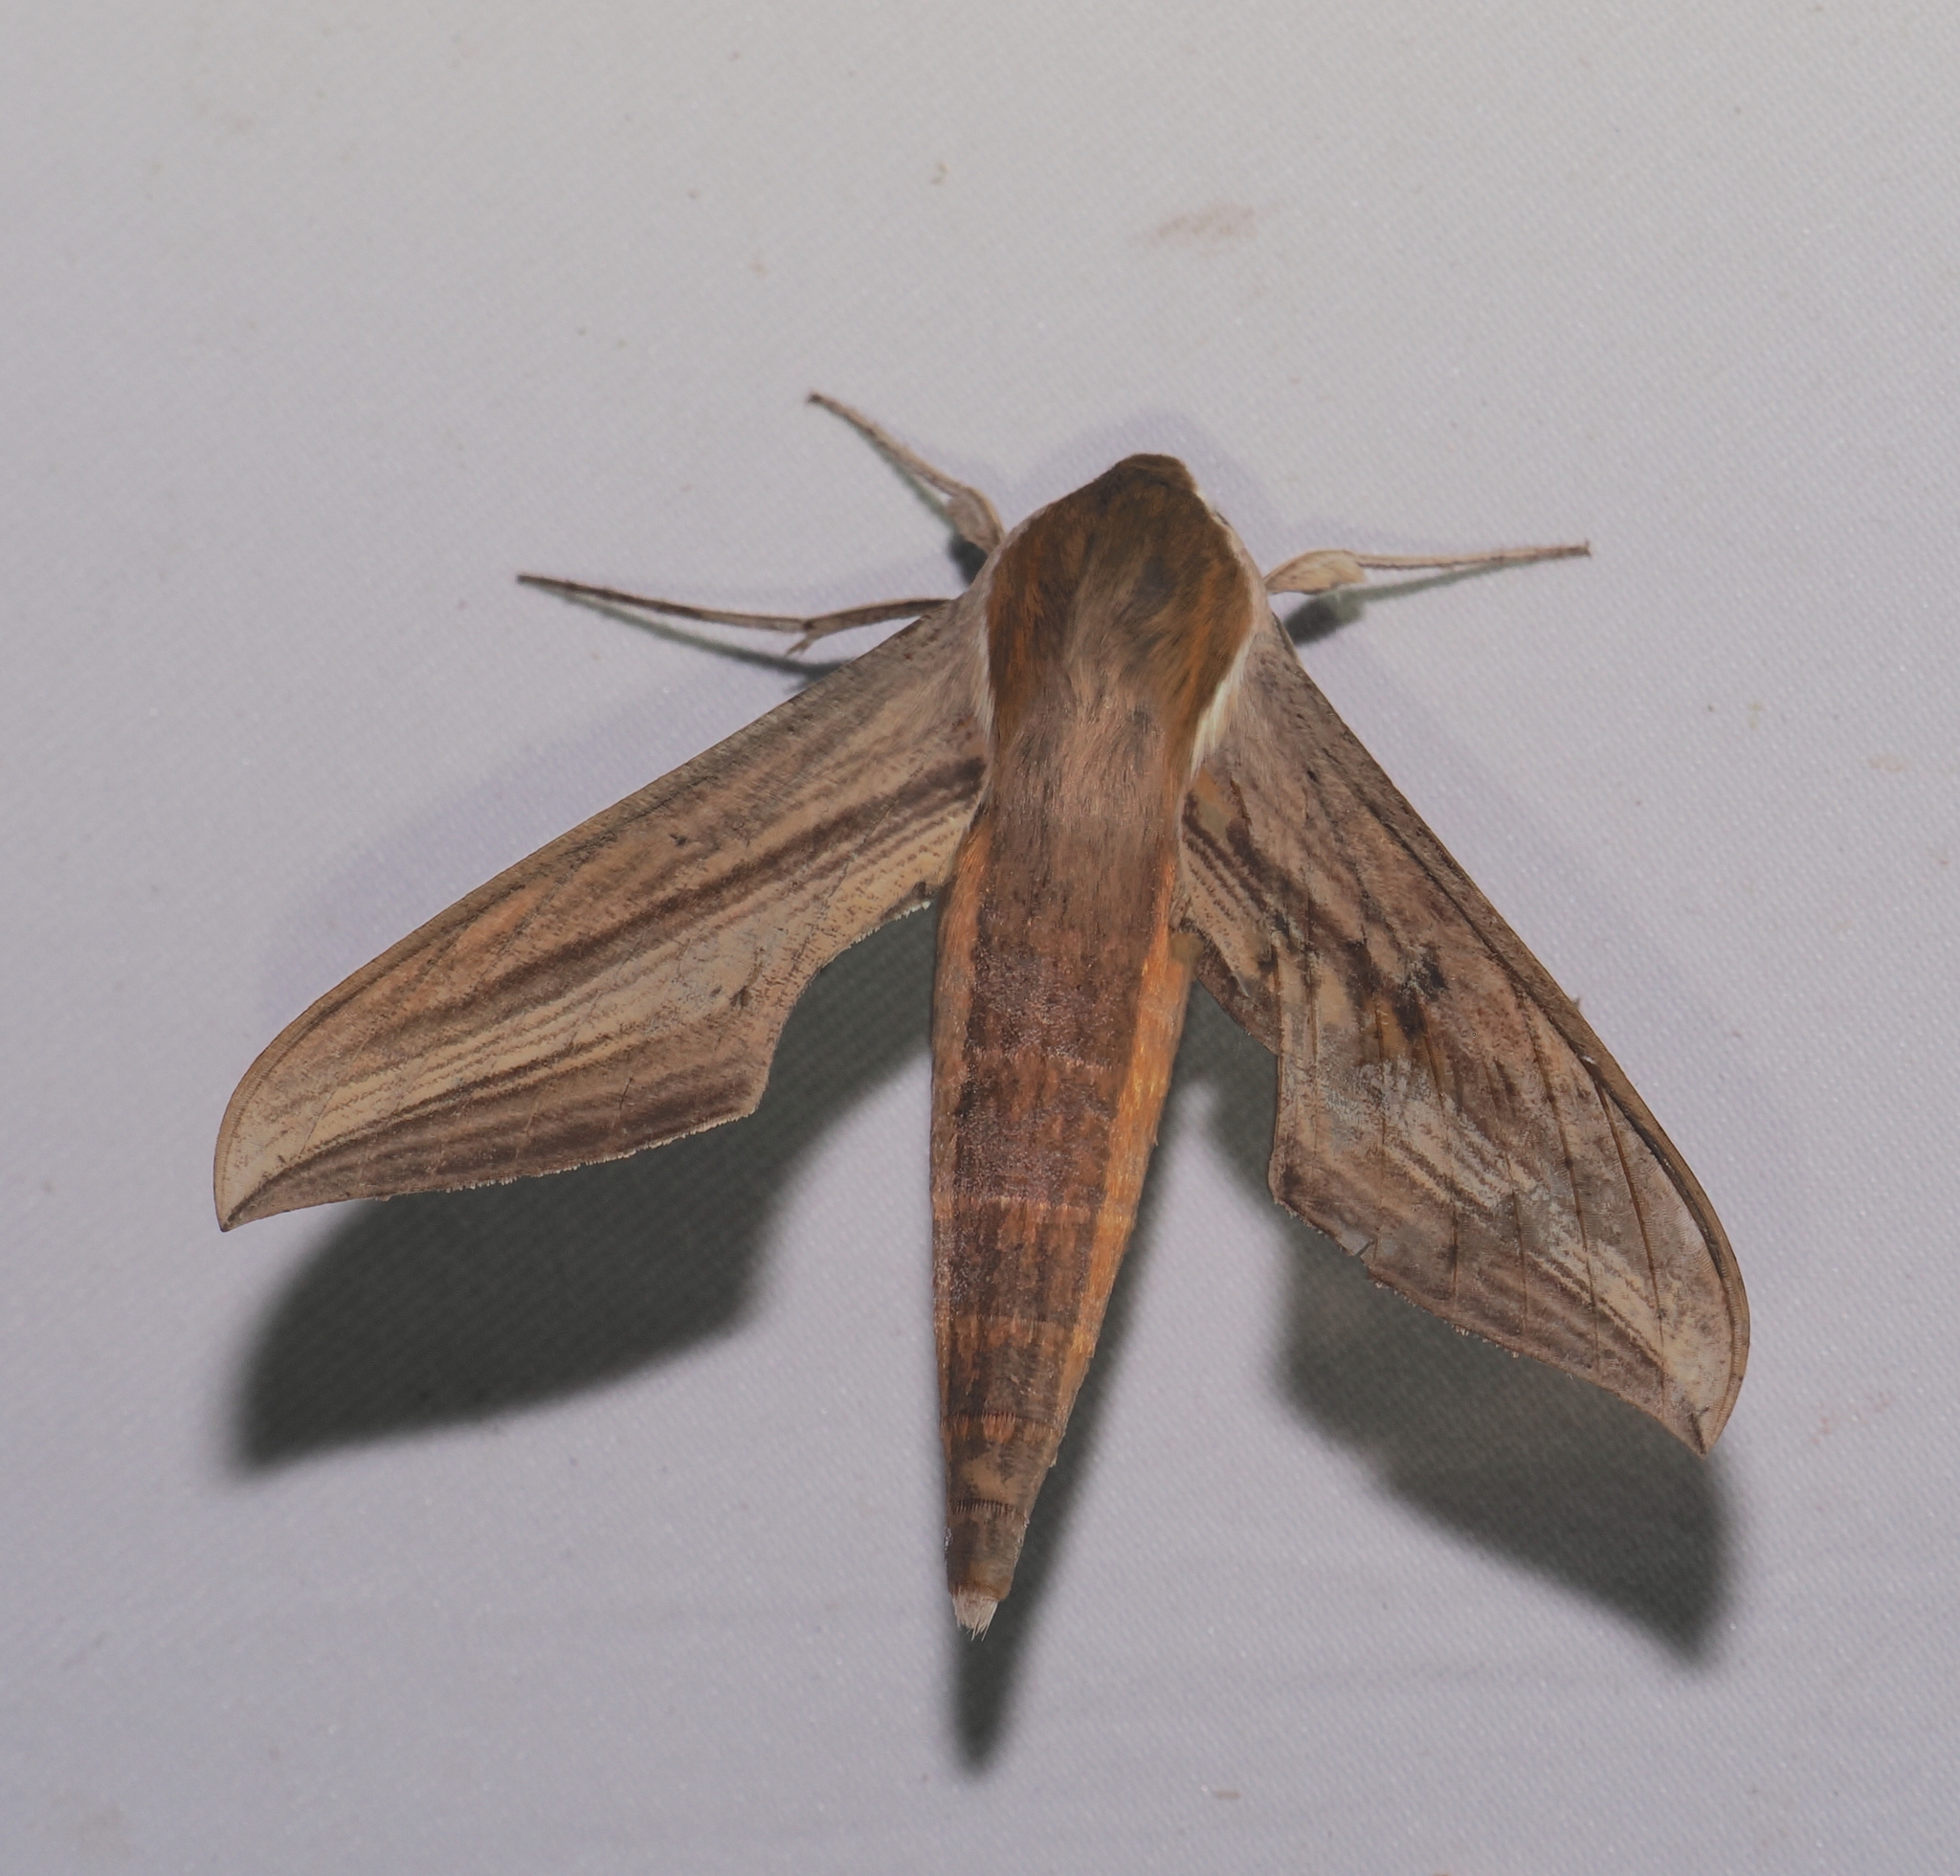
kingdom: Animalia
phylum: Arthropoda
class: Insecta
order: Lepidoptera
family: Sphingidae
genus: Xylophanes
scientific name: Xylophanes tersa
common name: Tersa sphinx
